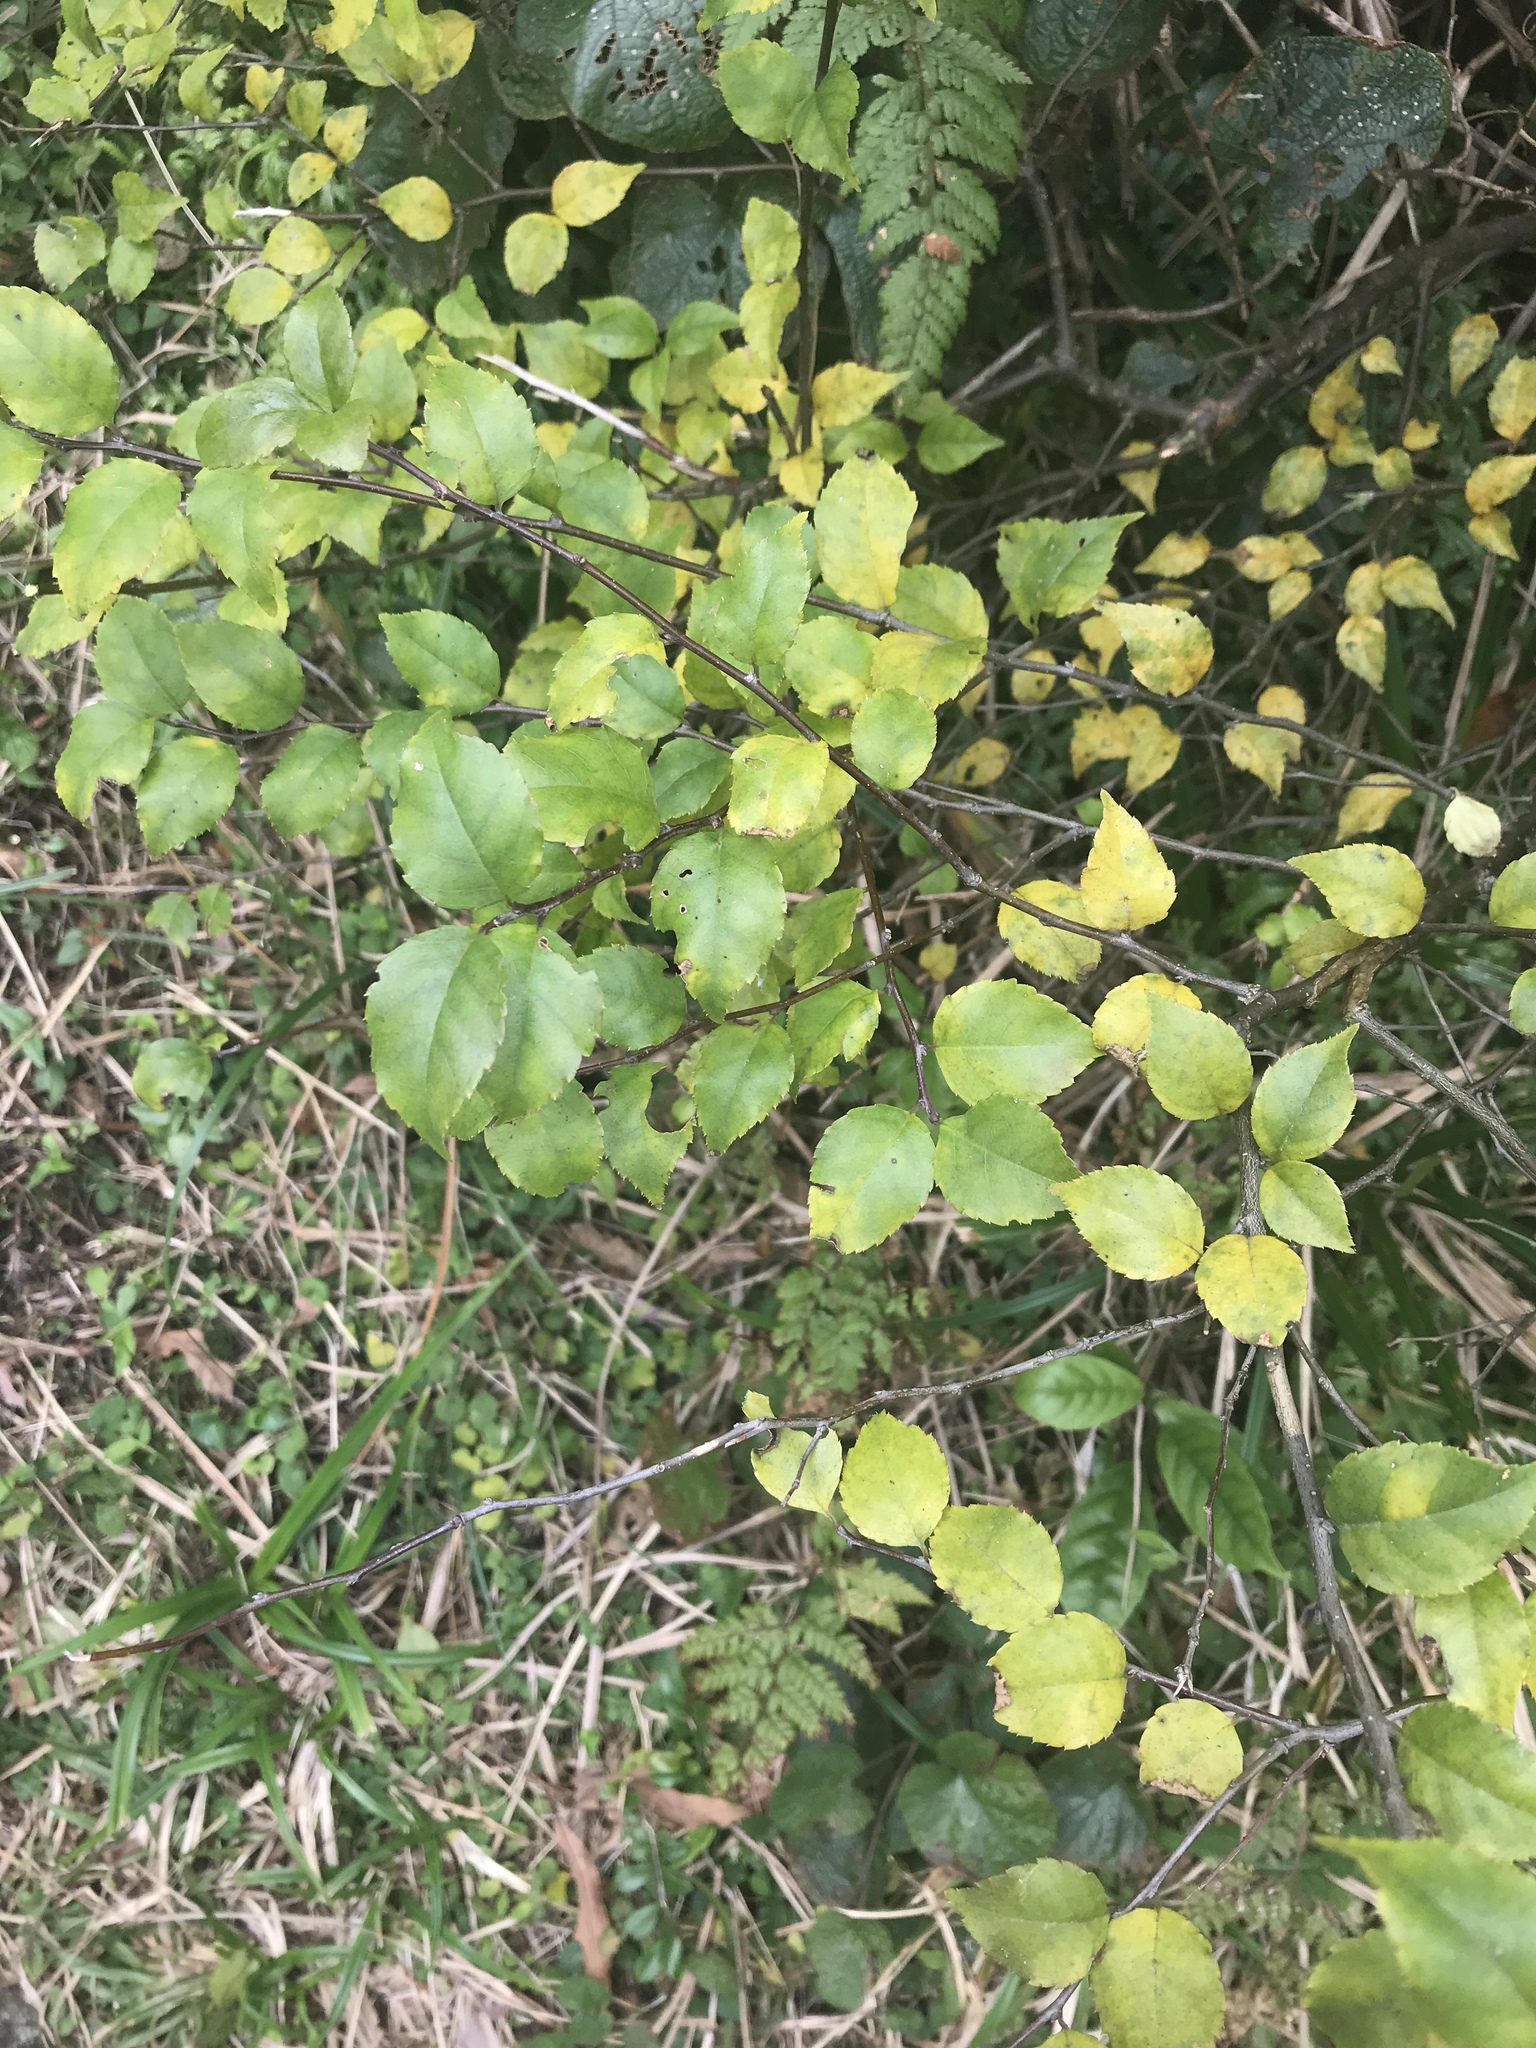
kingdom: Plantae
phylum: Tracheophyta
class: Magnoliopsida
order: Aquifoliales
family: Aquifoliaceae
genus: Ilex
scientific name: Ilex asprella
